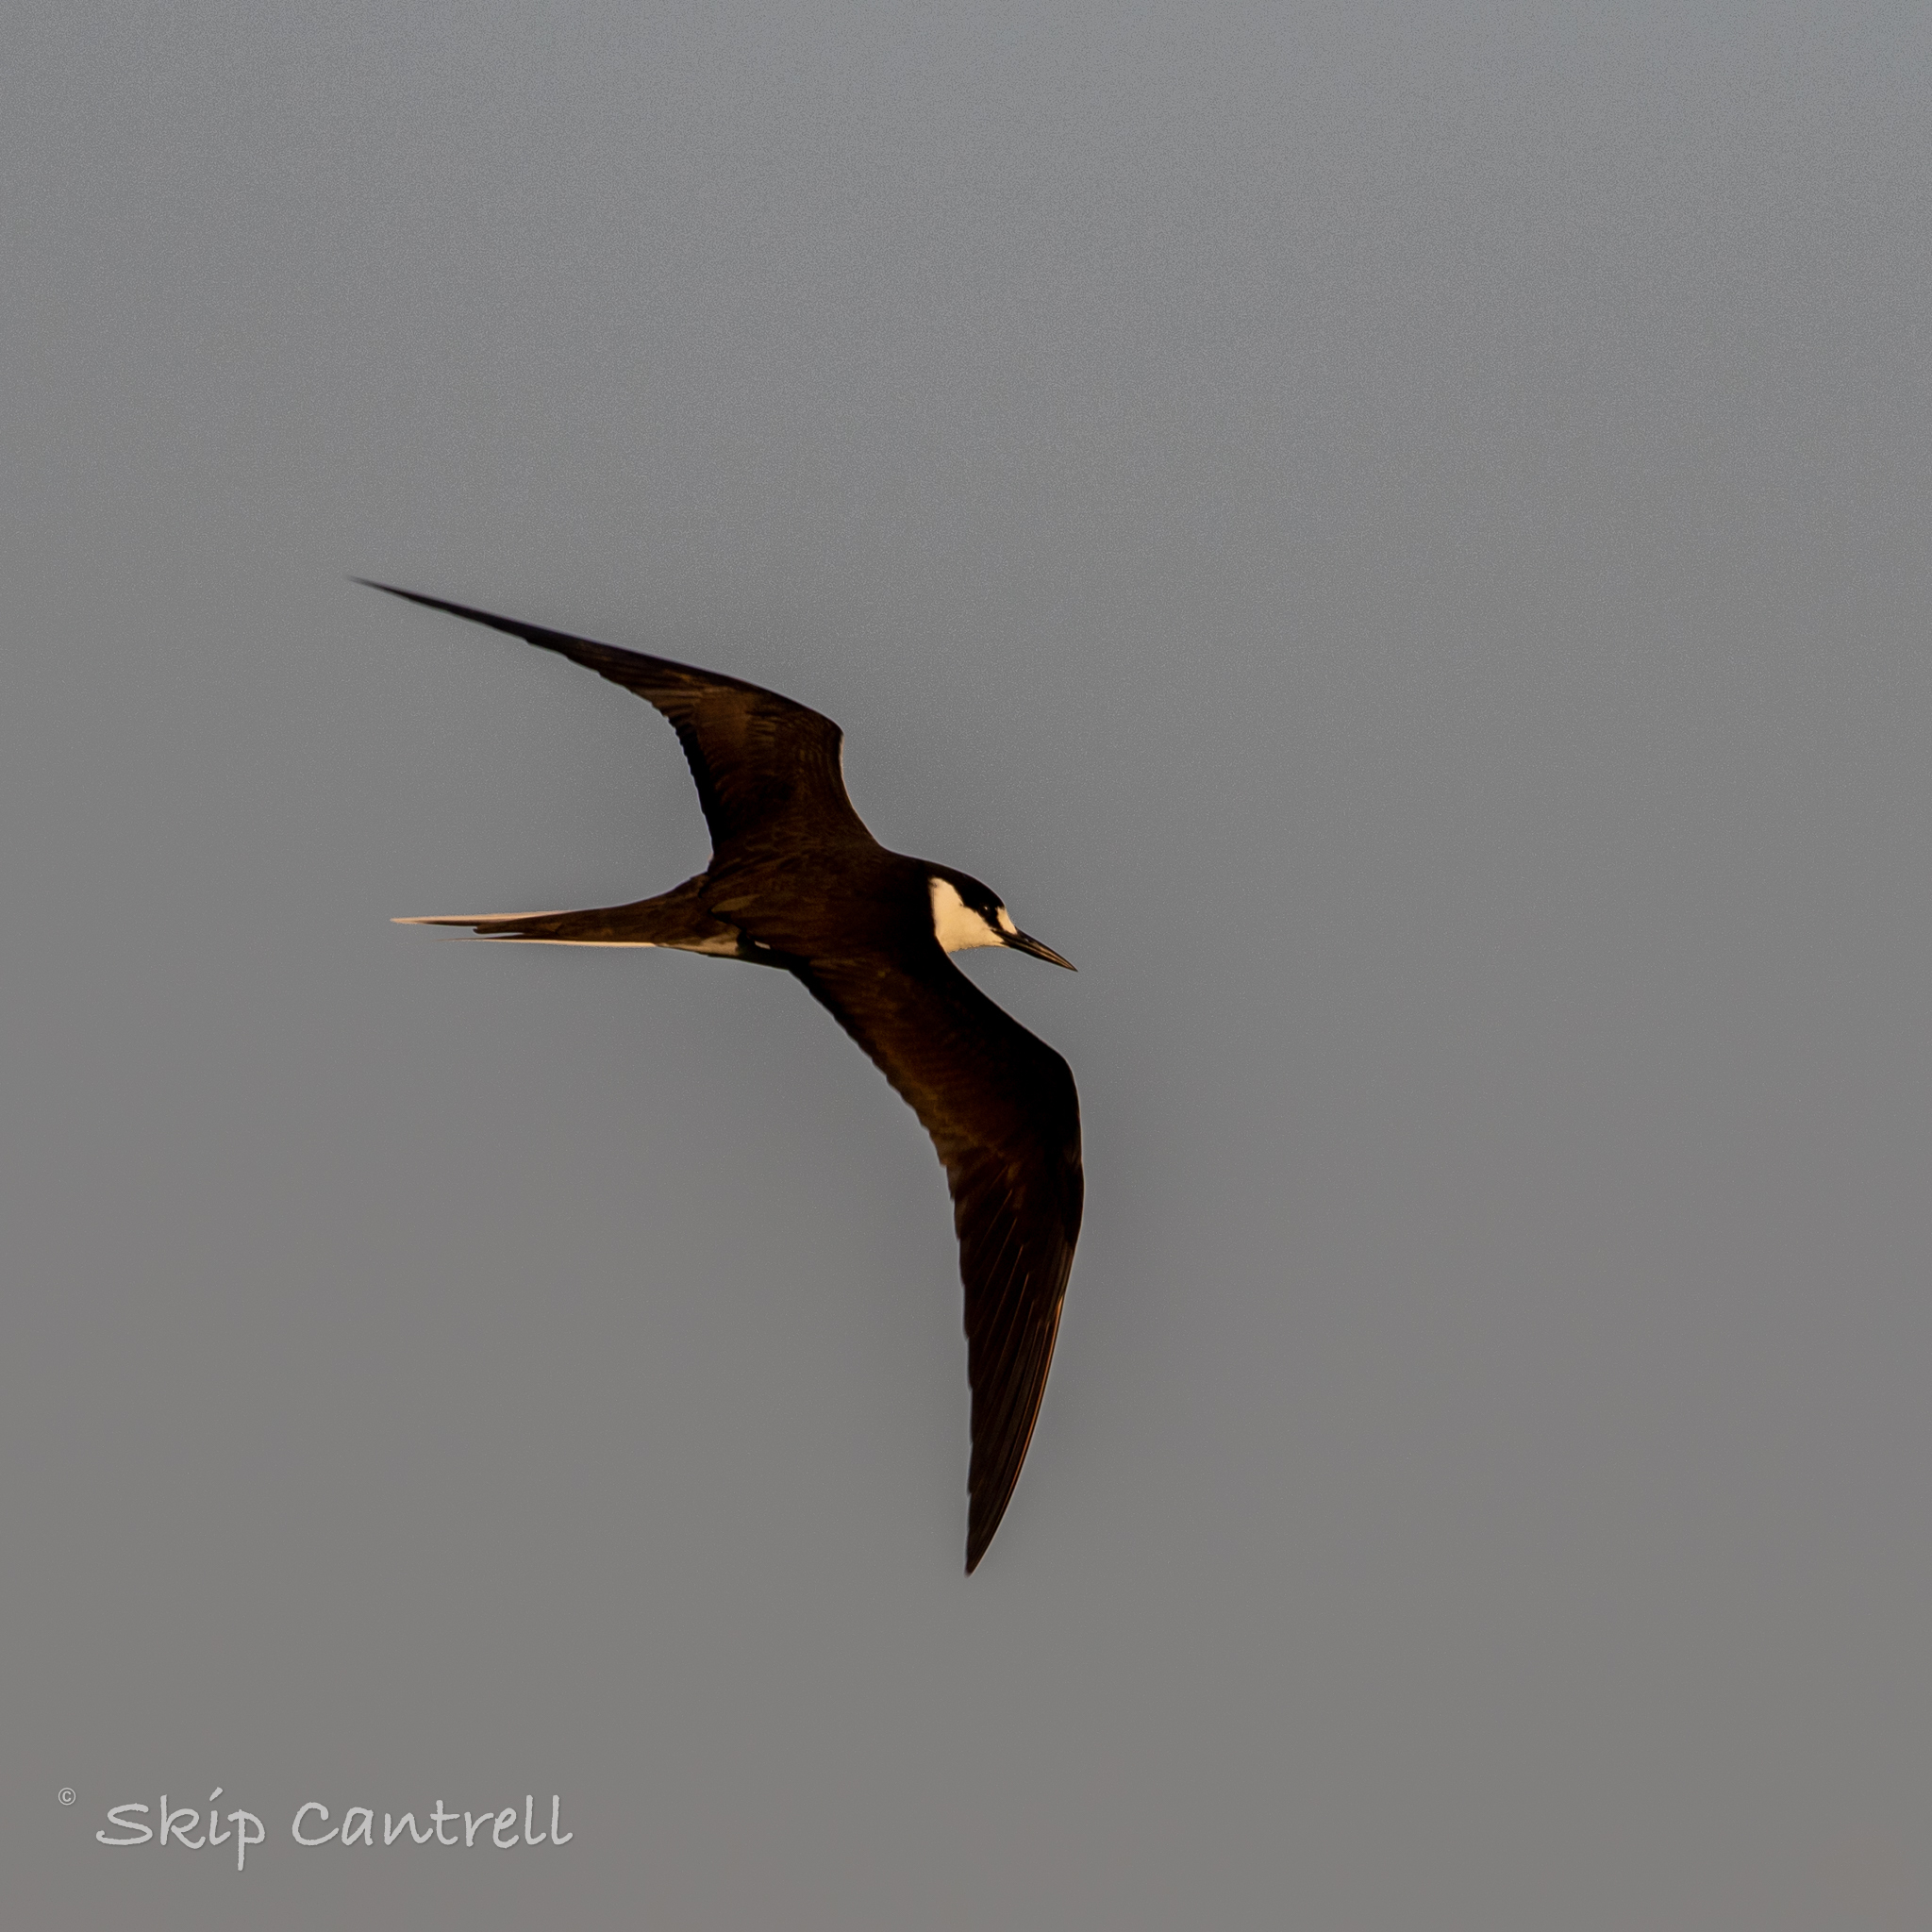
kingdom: Animalia
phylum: Chordata
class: Aves
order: Charadriiformes
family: Laridae
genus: Onychoprion
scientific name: Onychoprion fuscatus
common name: Sooty tern
